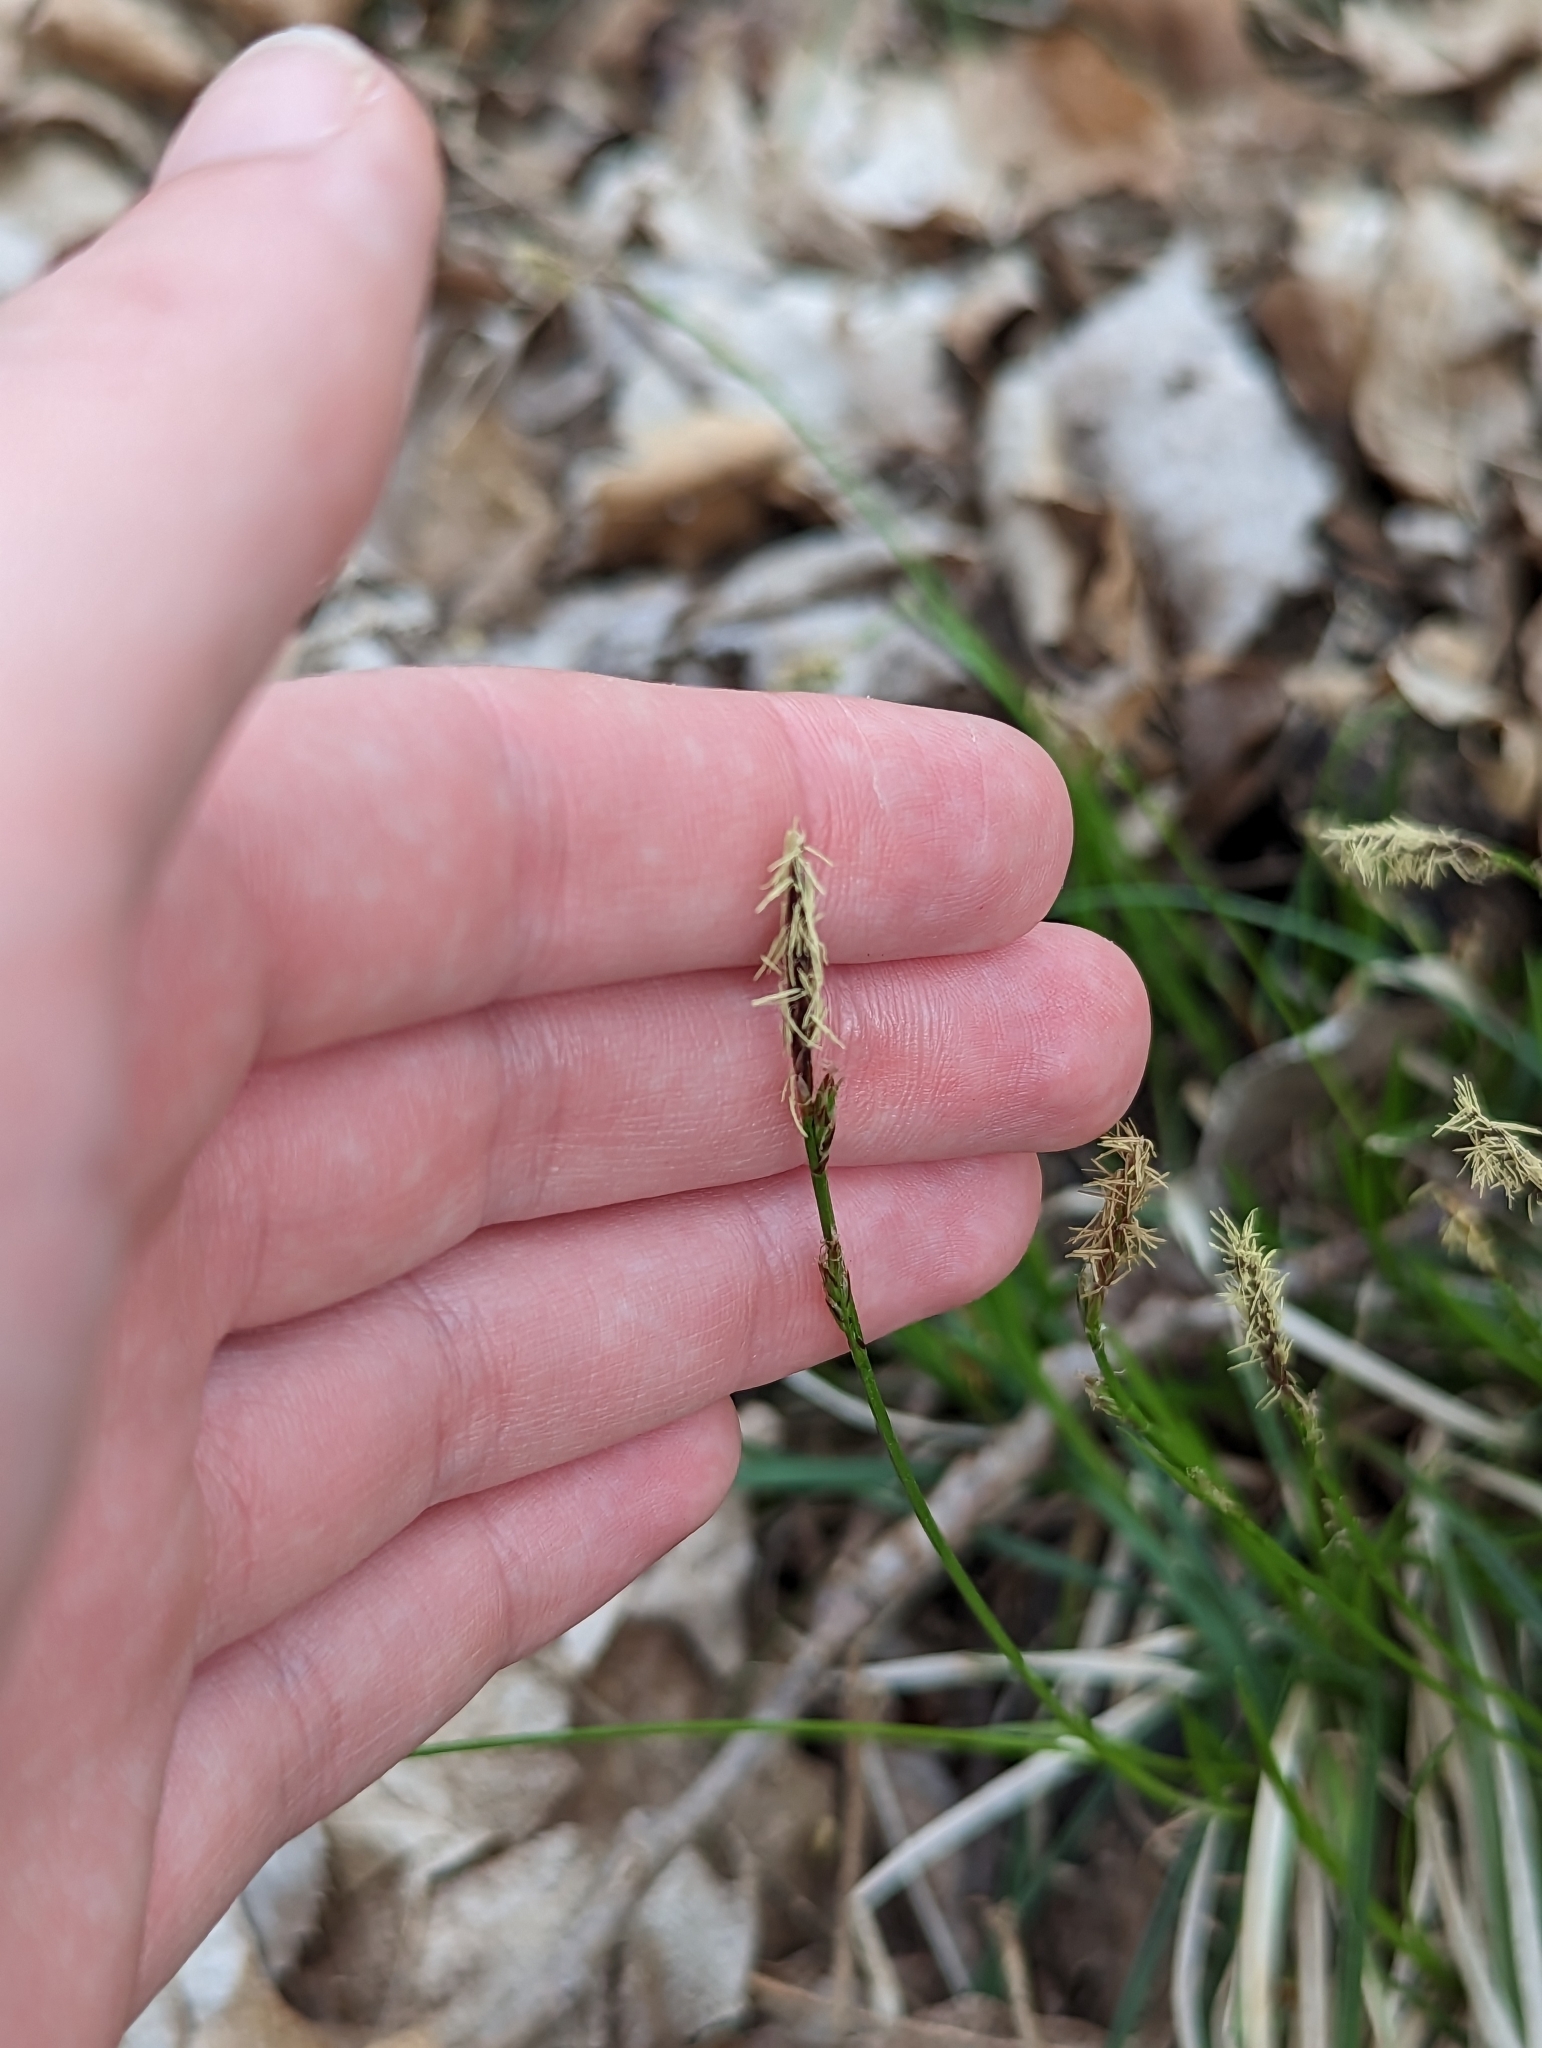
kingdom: Plantae
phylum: Tracheophyta
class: Liliopsida
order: Poales
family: Cyperaceae
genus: Carex
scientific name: Carex pensylvanica
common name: Common oak sedge
